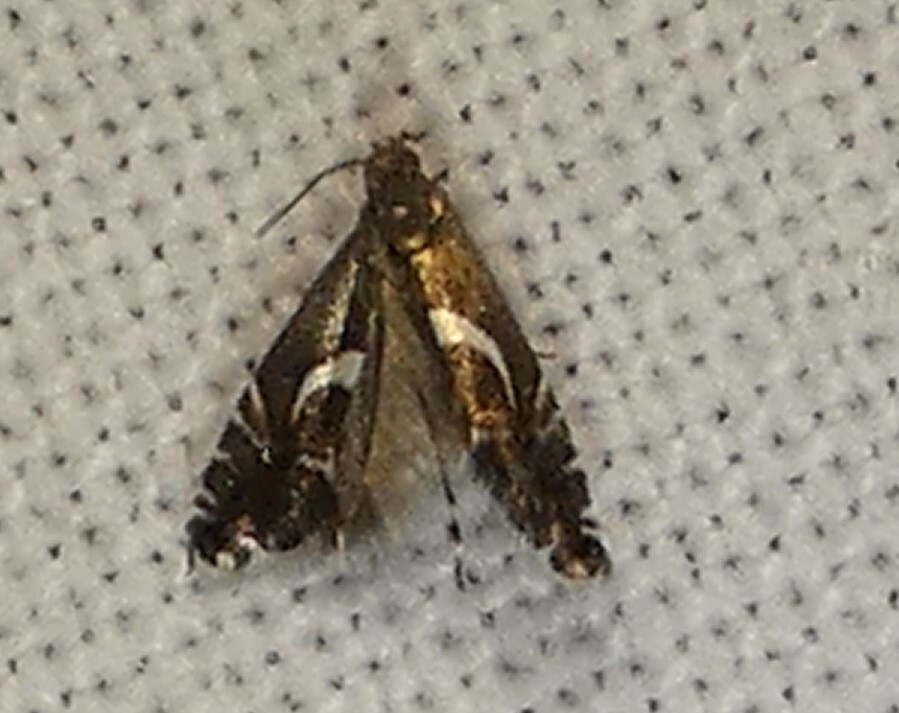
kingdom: Animalia
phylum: Arthropoda
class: Insecta
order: Lepidoptera
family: Glyphipterigidae
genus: Glyphipterix
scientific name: Glyphipterix Diploschizia impigritella
